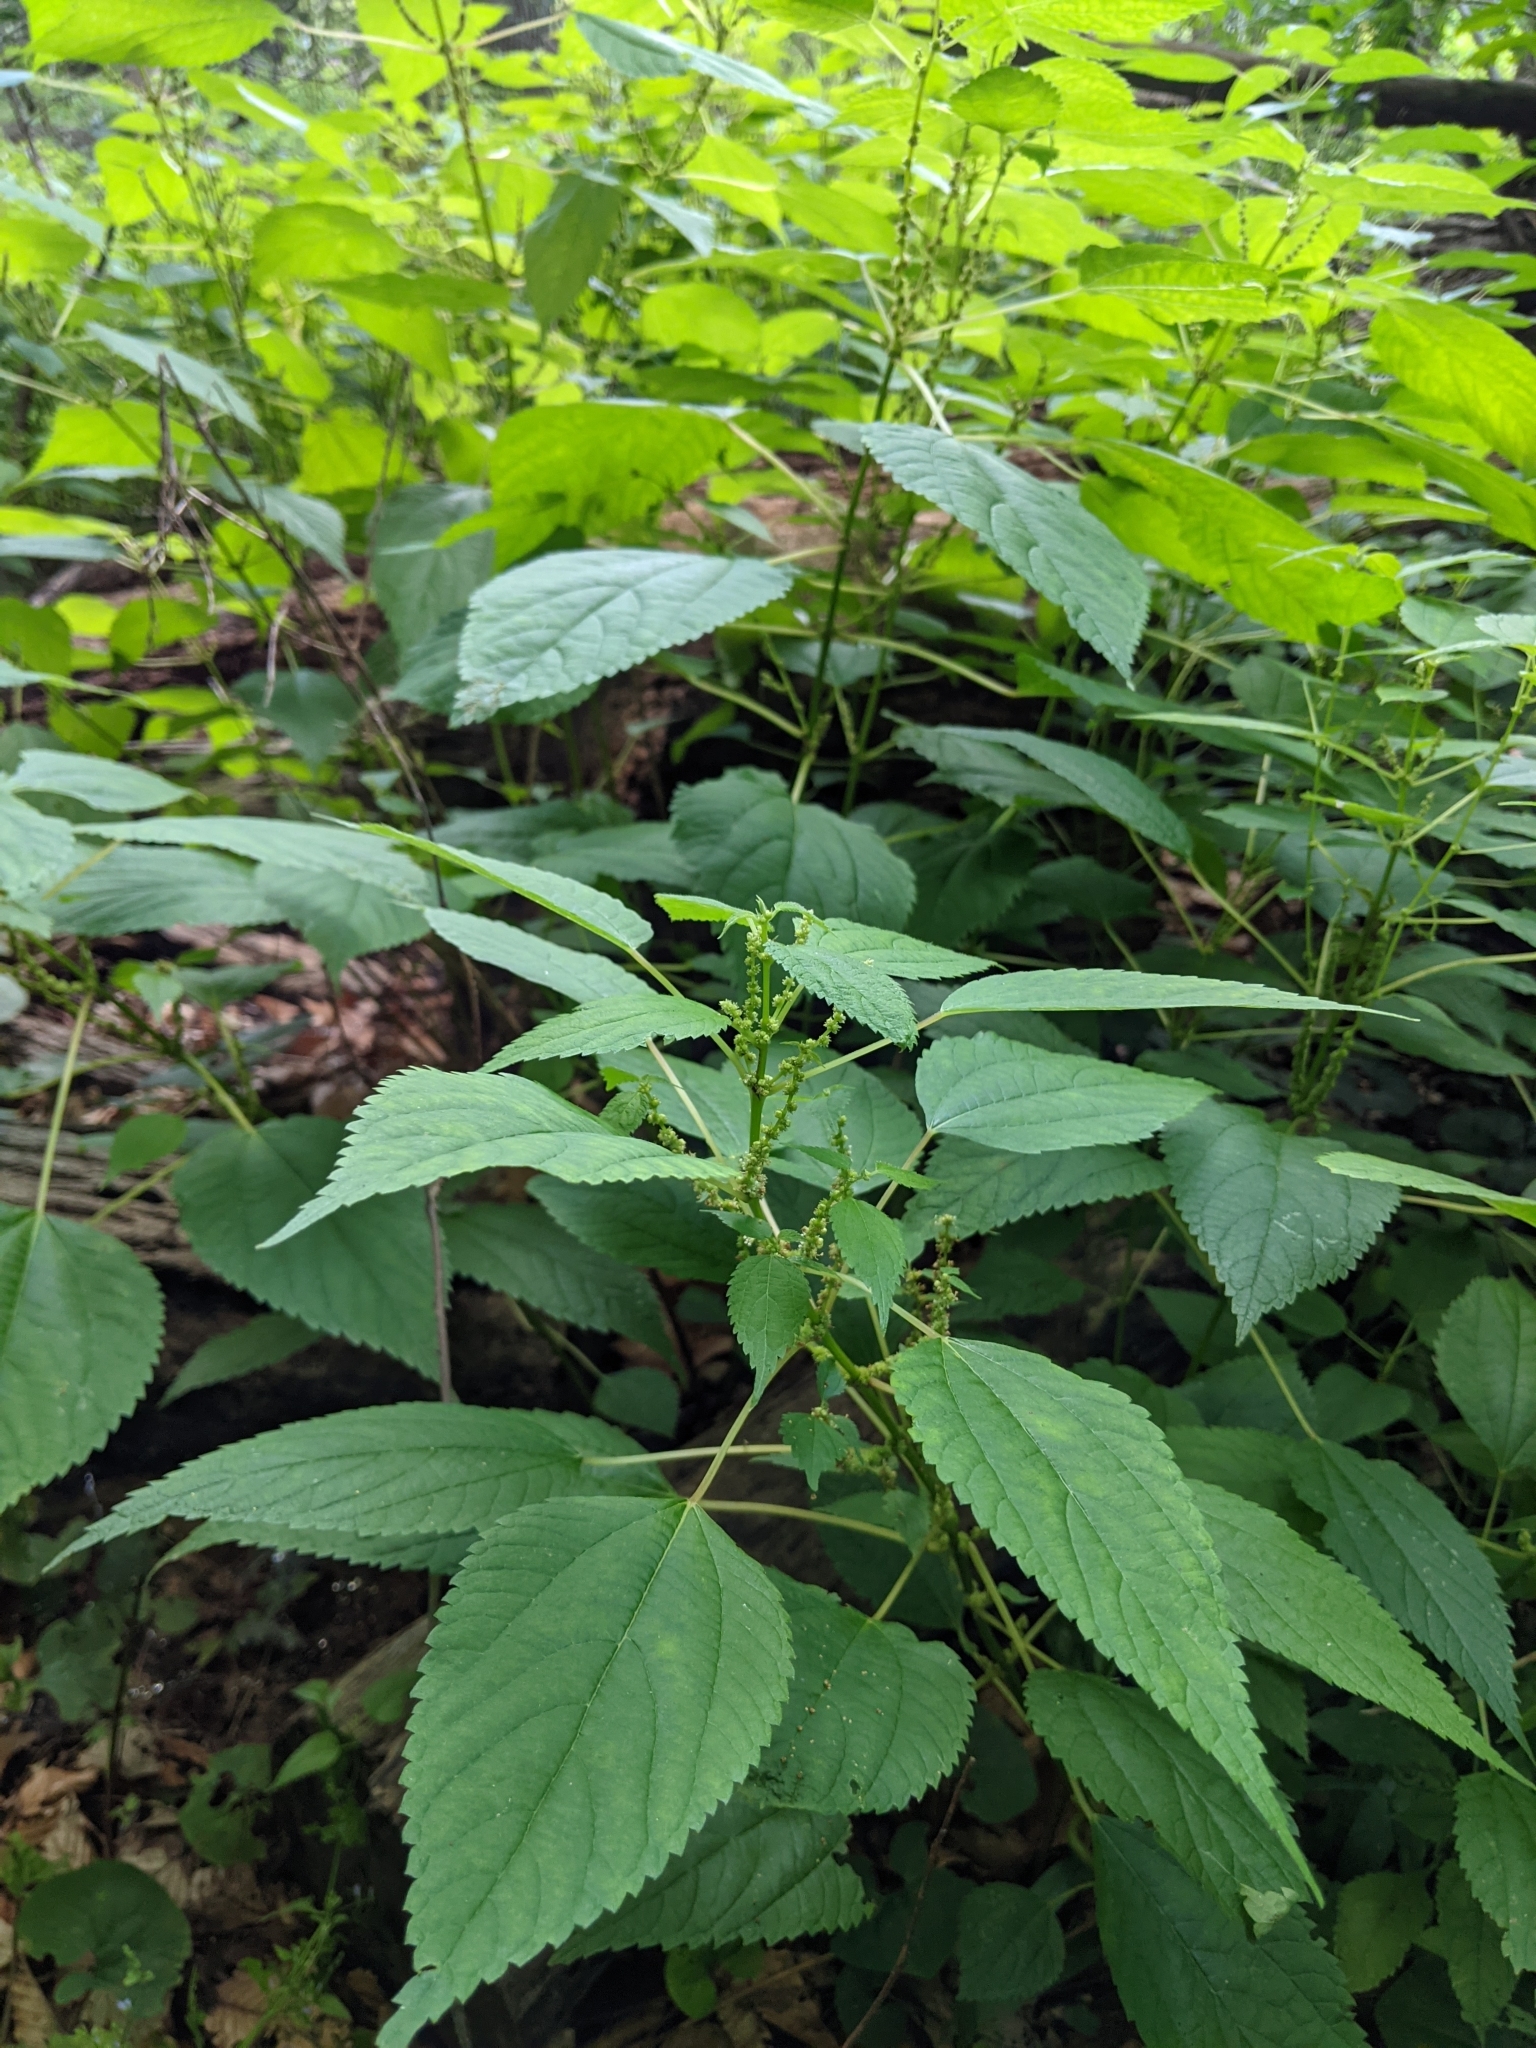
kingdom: Plantae
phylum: Tracheophyta
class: Magnoliopsida
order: Rosales
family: Urticaceae
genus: Boehmeria
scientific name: Boehmeria cylindrica
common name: Bog-hemp
